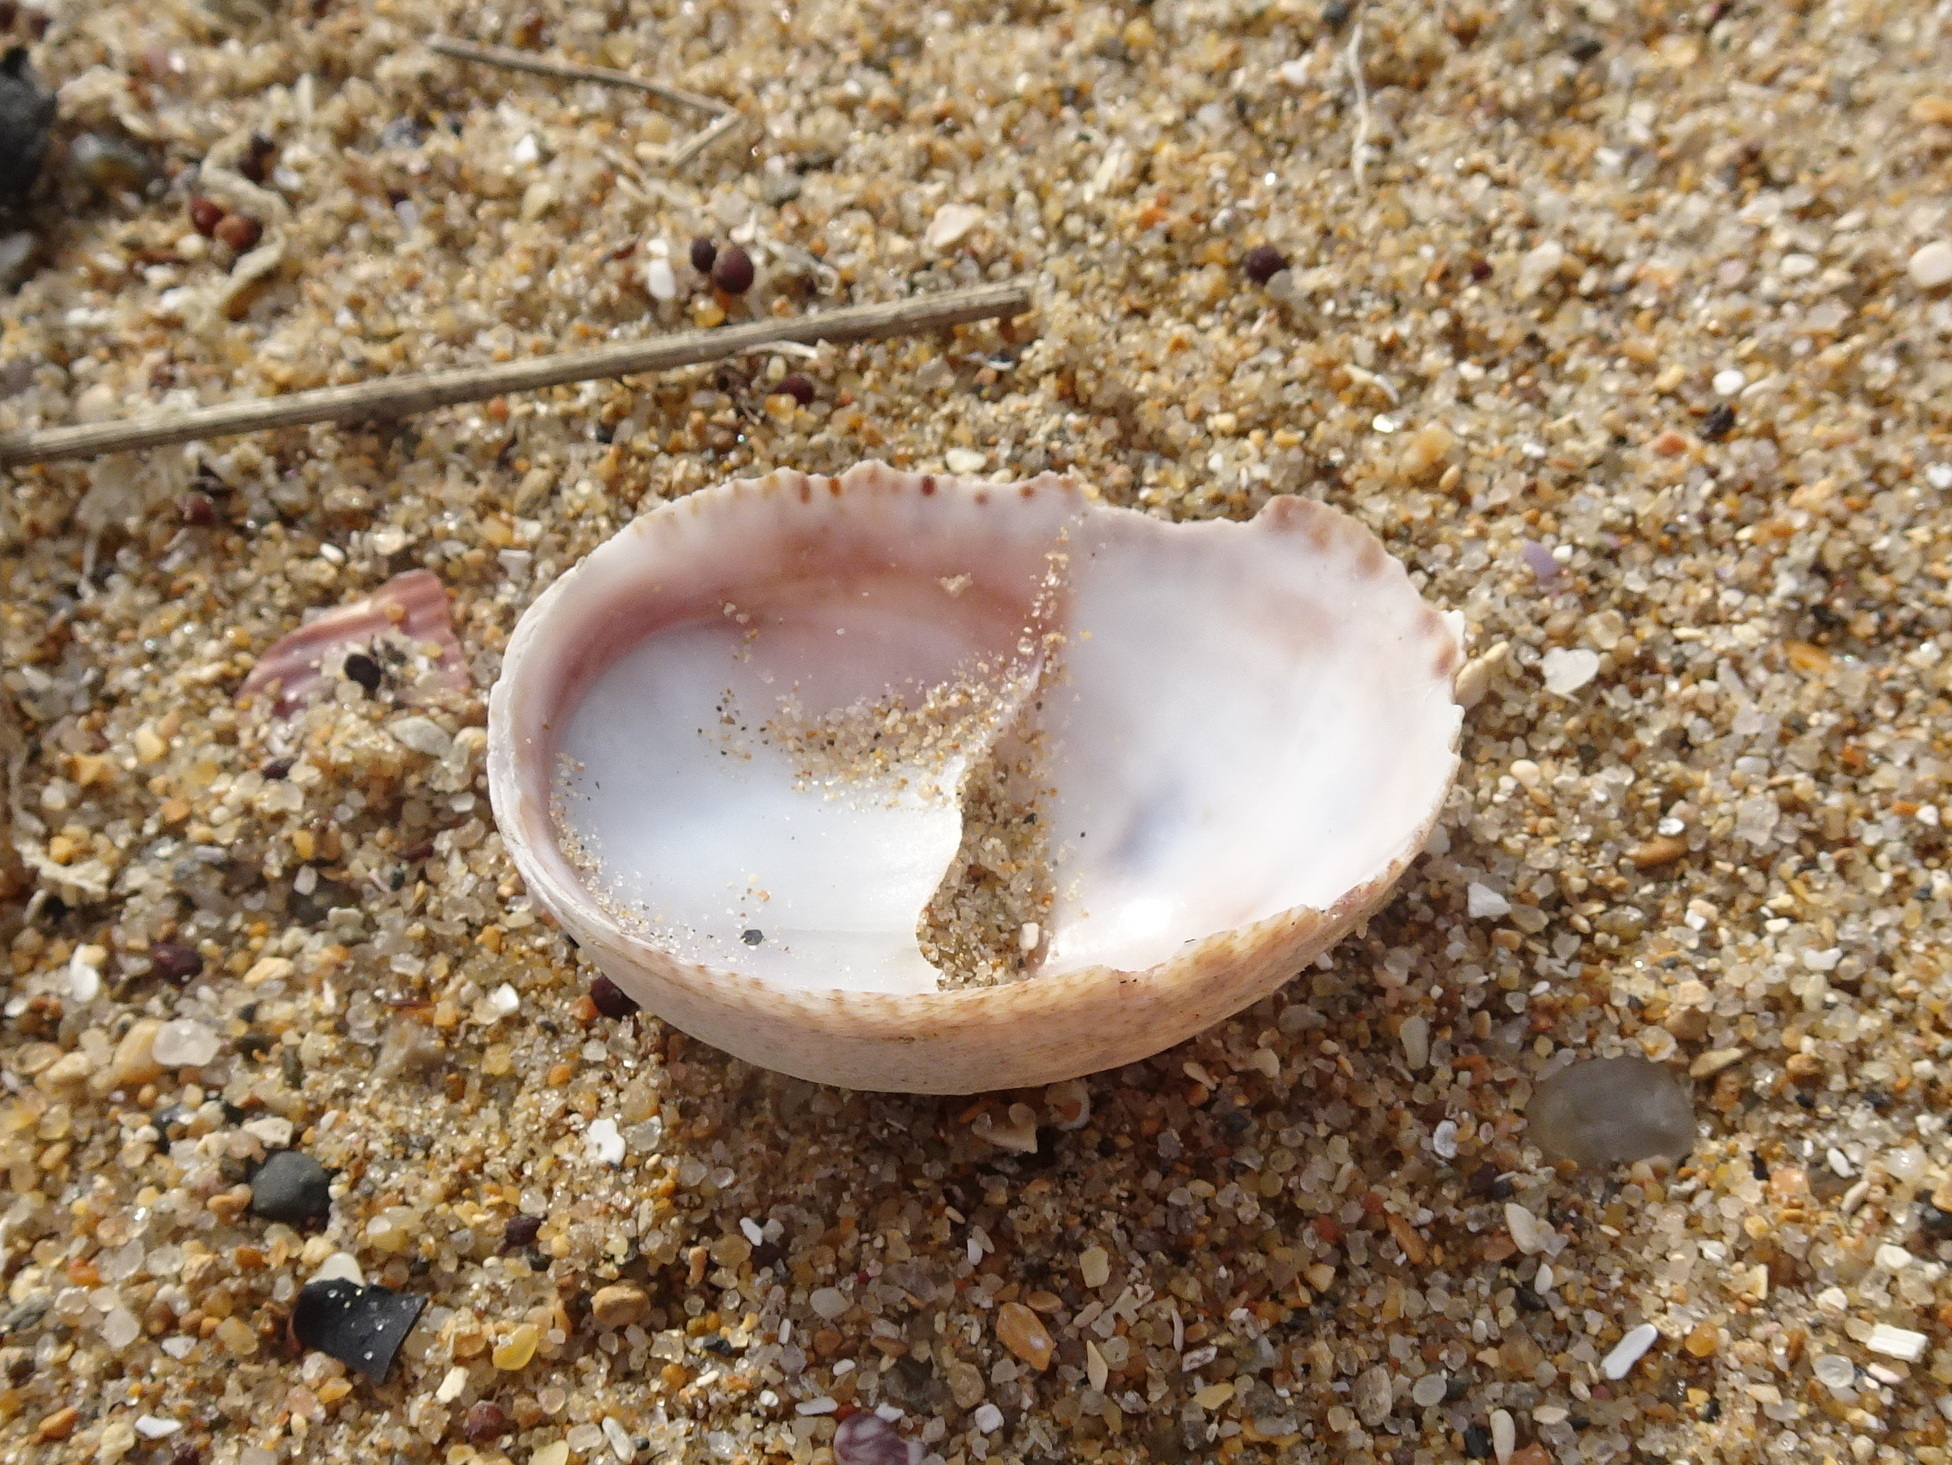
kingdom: Animalia
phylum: Mollusca
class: Gastropoda
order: Littorinimorpha
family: Calyptraeidae
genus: Crepidula
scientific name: Crepidula fornicata
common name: Slipper limpet
